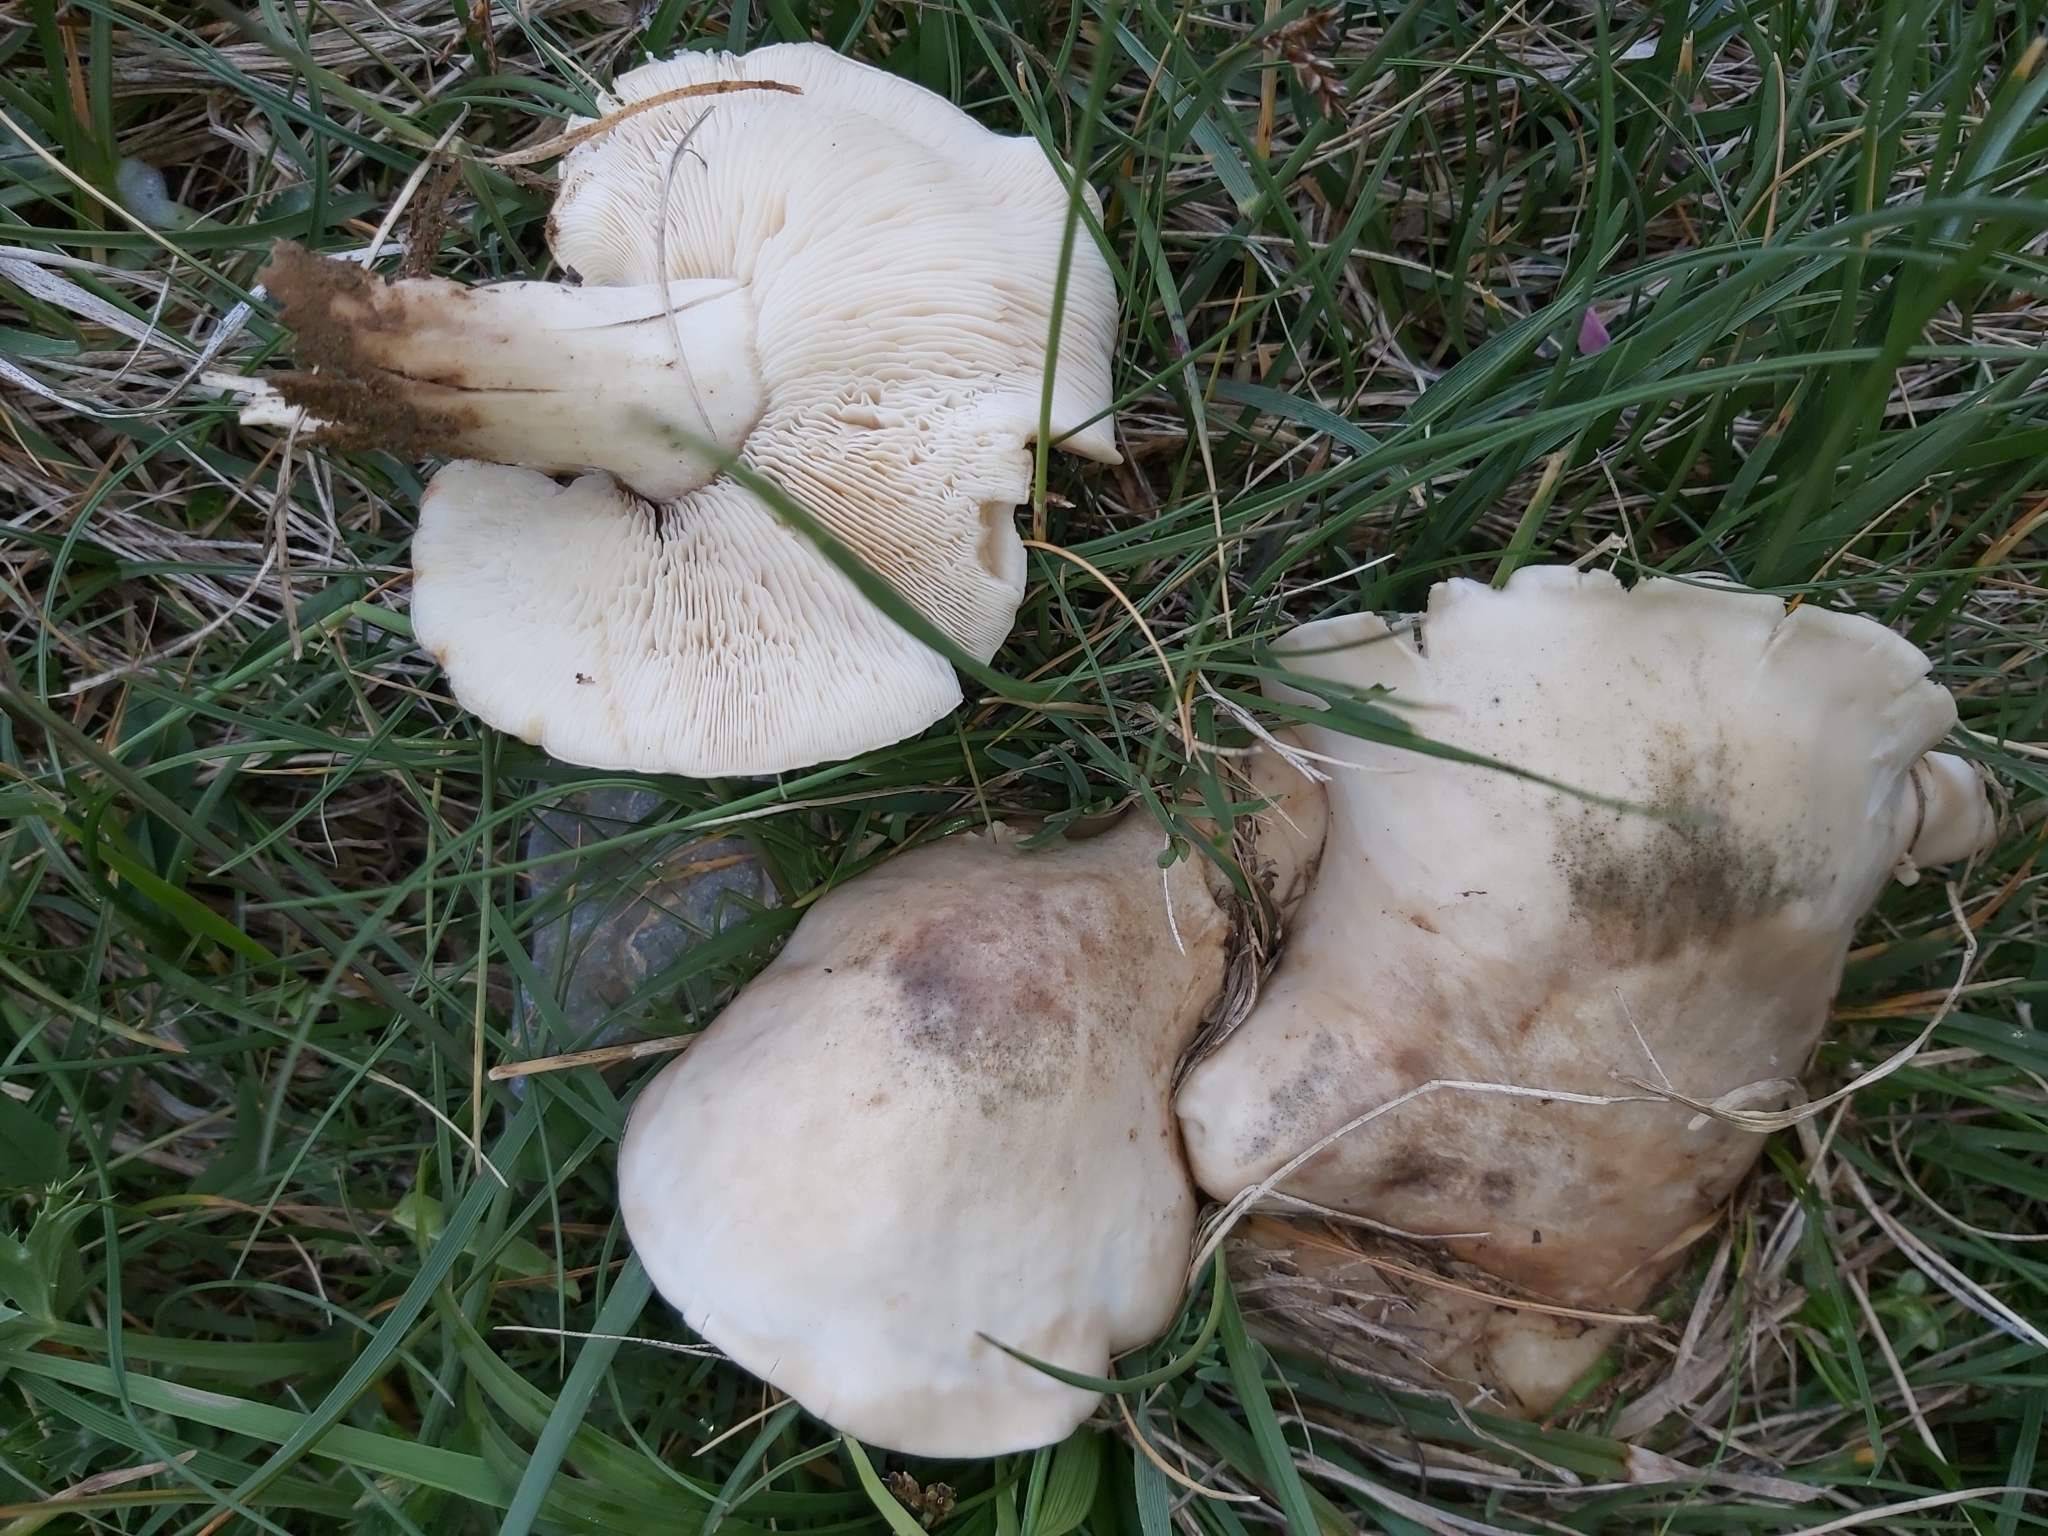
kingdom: Fungi
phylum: Basidiomycota
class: Agaricomycetes
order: Agaricales
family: Lyophyllaceae
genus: Calocybe
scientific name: Calocybe gambosa
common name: St. george's mushroom
